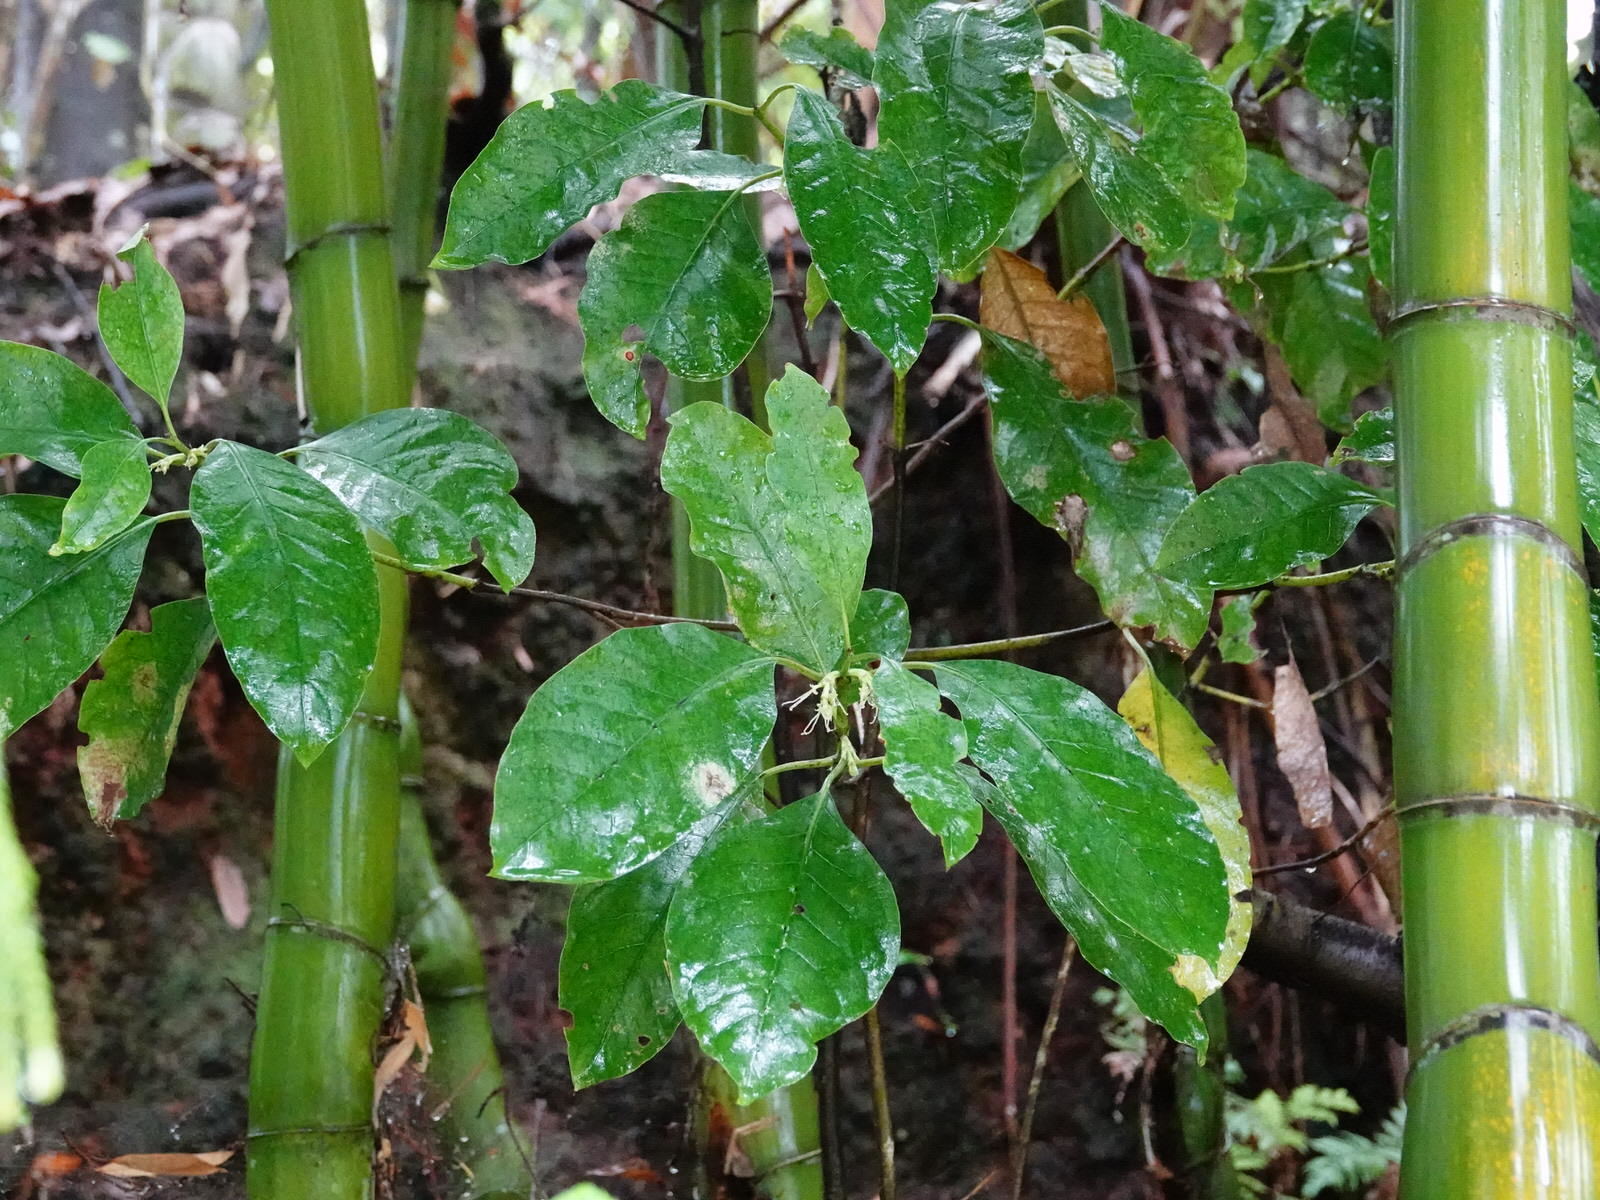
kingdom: Plantae
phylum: Tracheophyta
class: Magnoliopsida
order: Gentianales
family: Rubiaceae
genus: Coprosma
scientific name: Coprosma autumnalis
